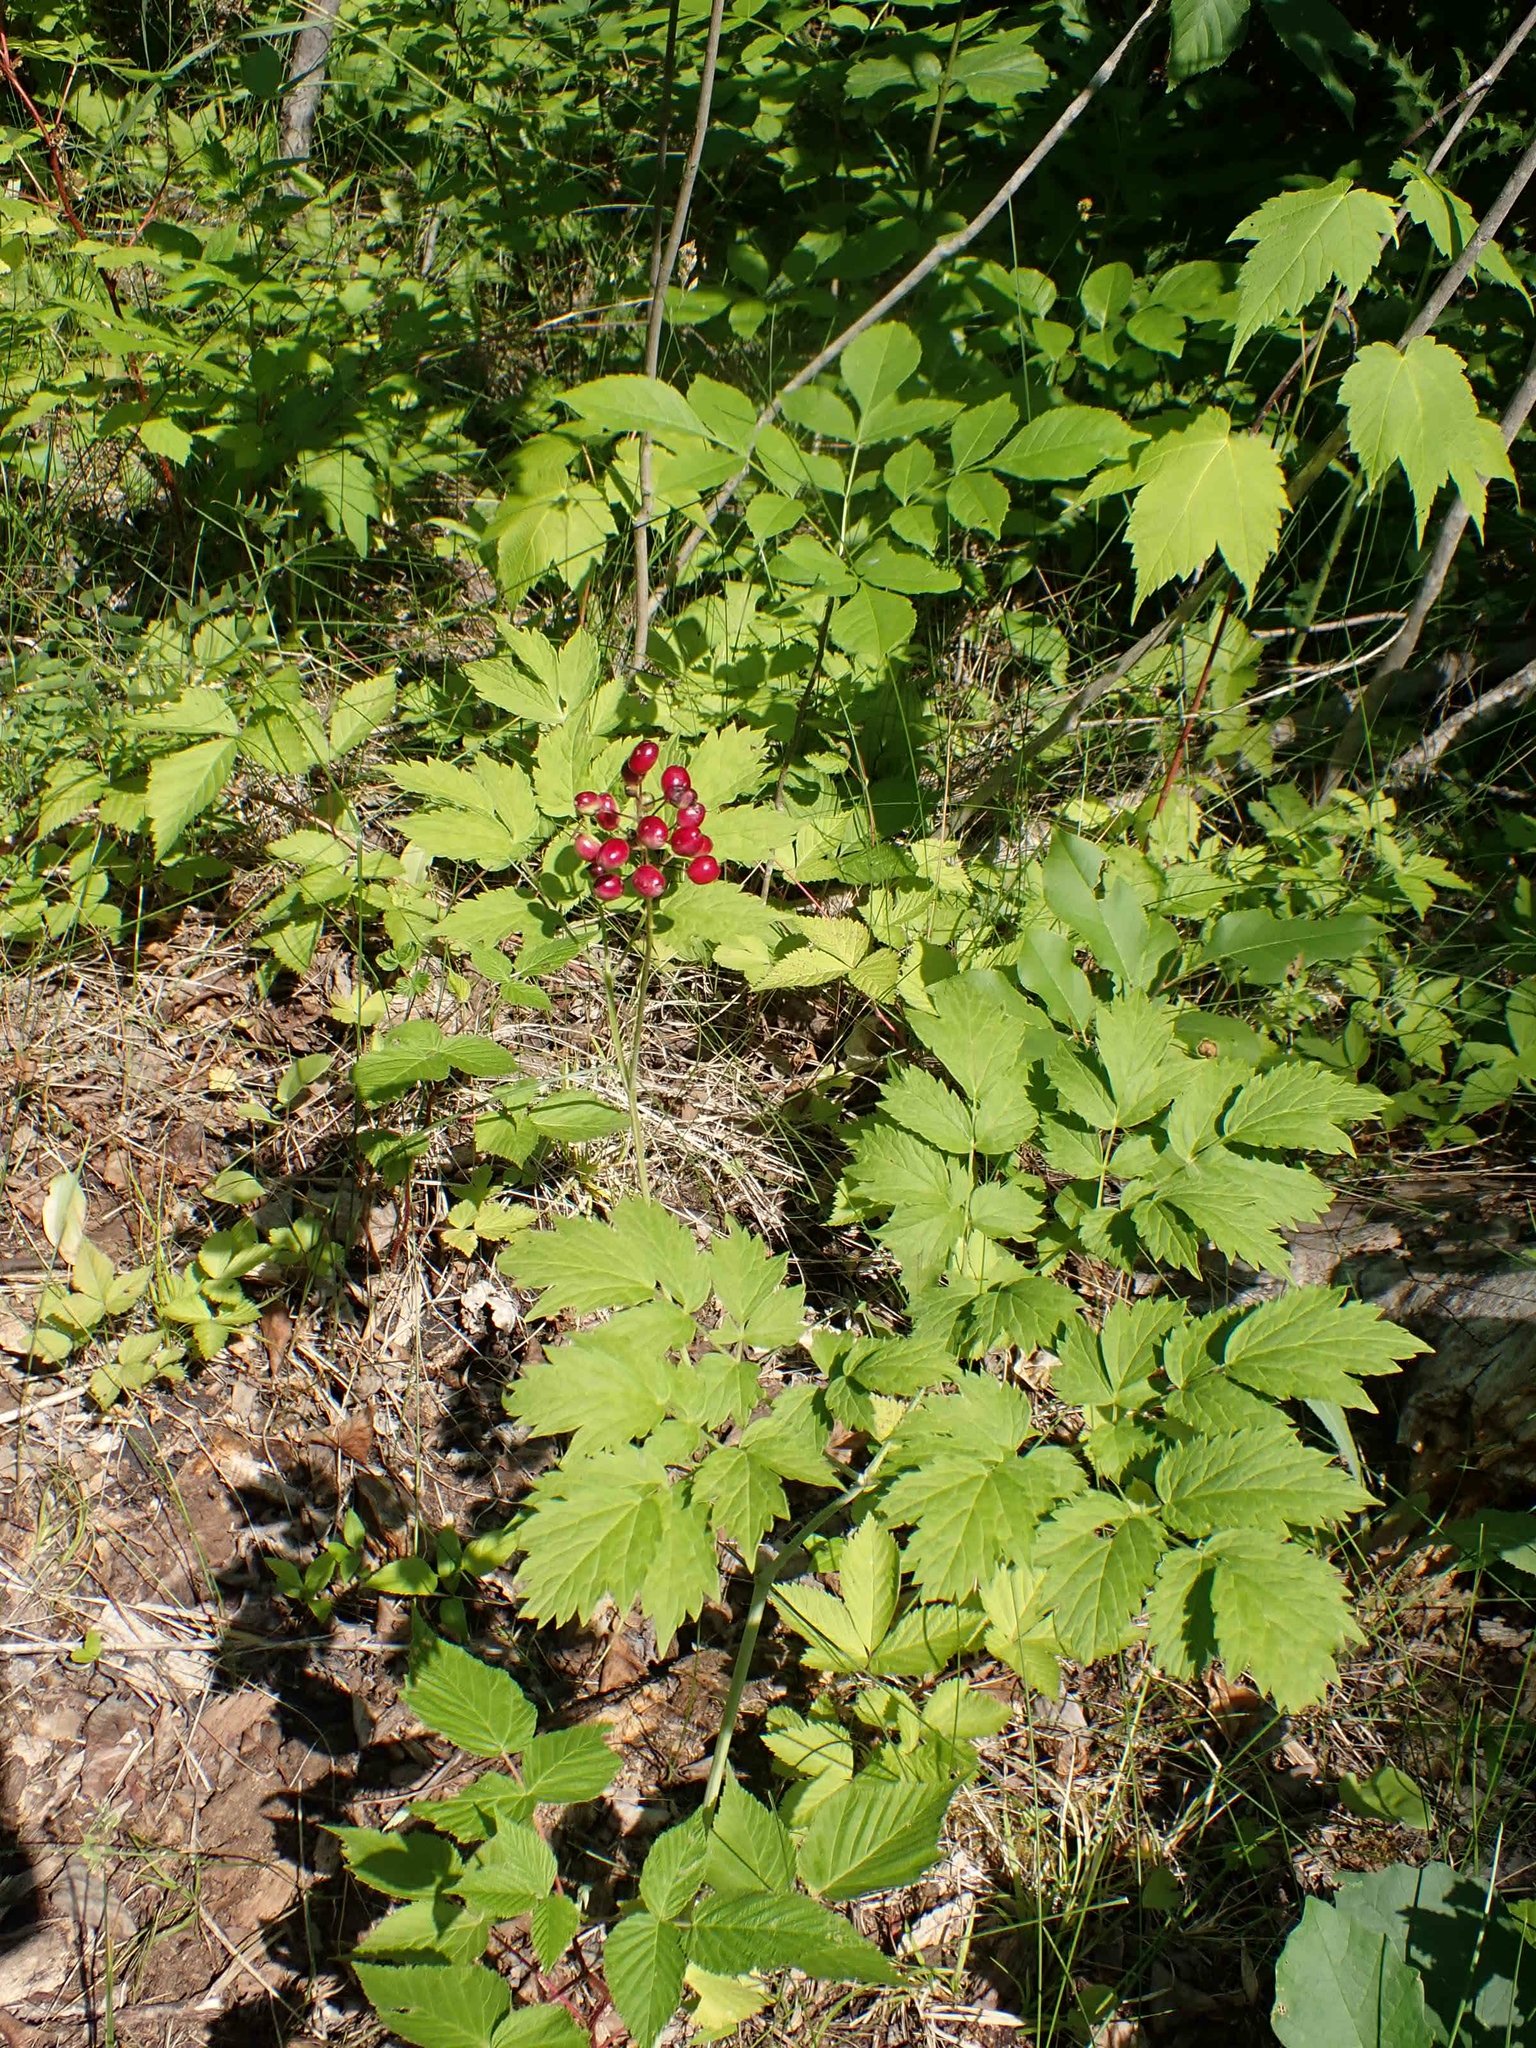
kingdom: Plantae
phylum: Tracheophyta
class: Magnoliopsida
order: Ranunculales
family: Ranunculaceae
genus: Actaea
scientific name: Actaea rubra
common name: Red baneberry
